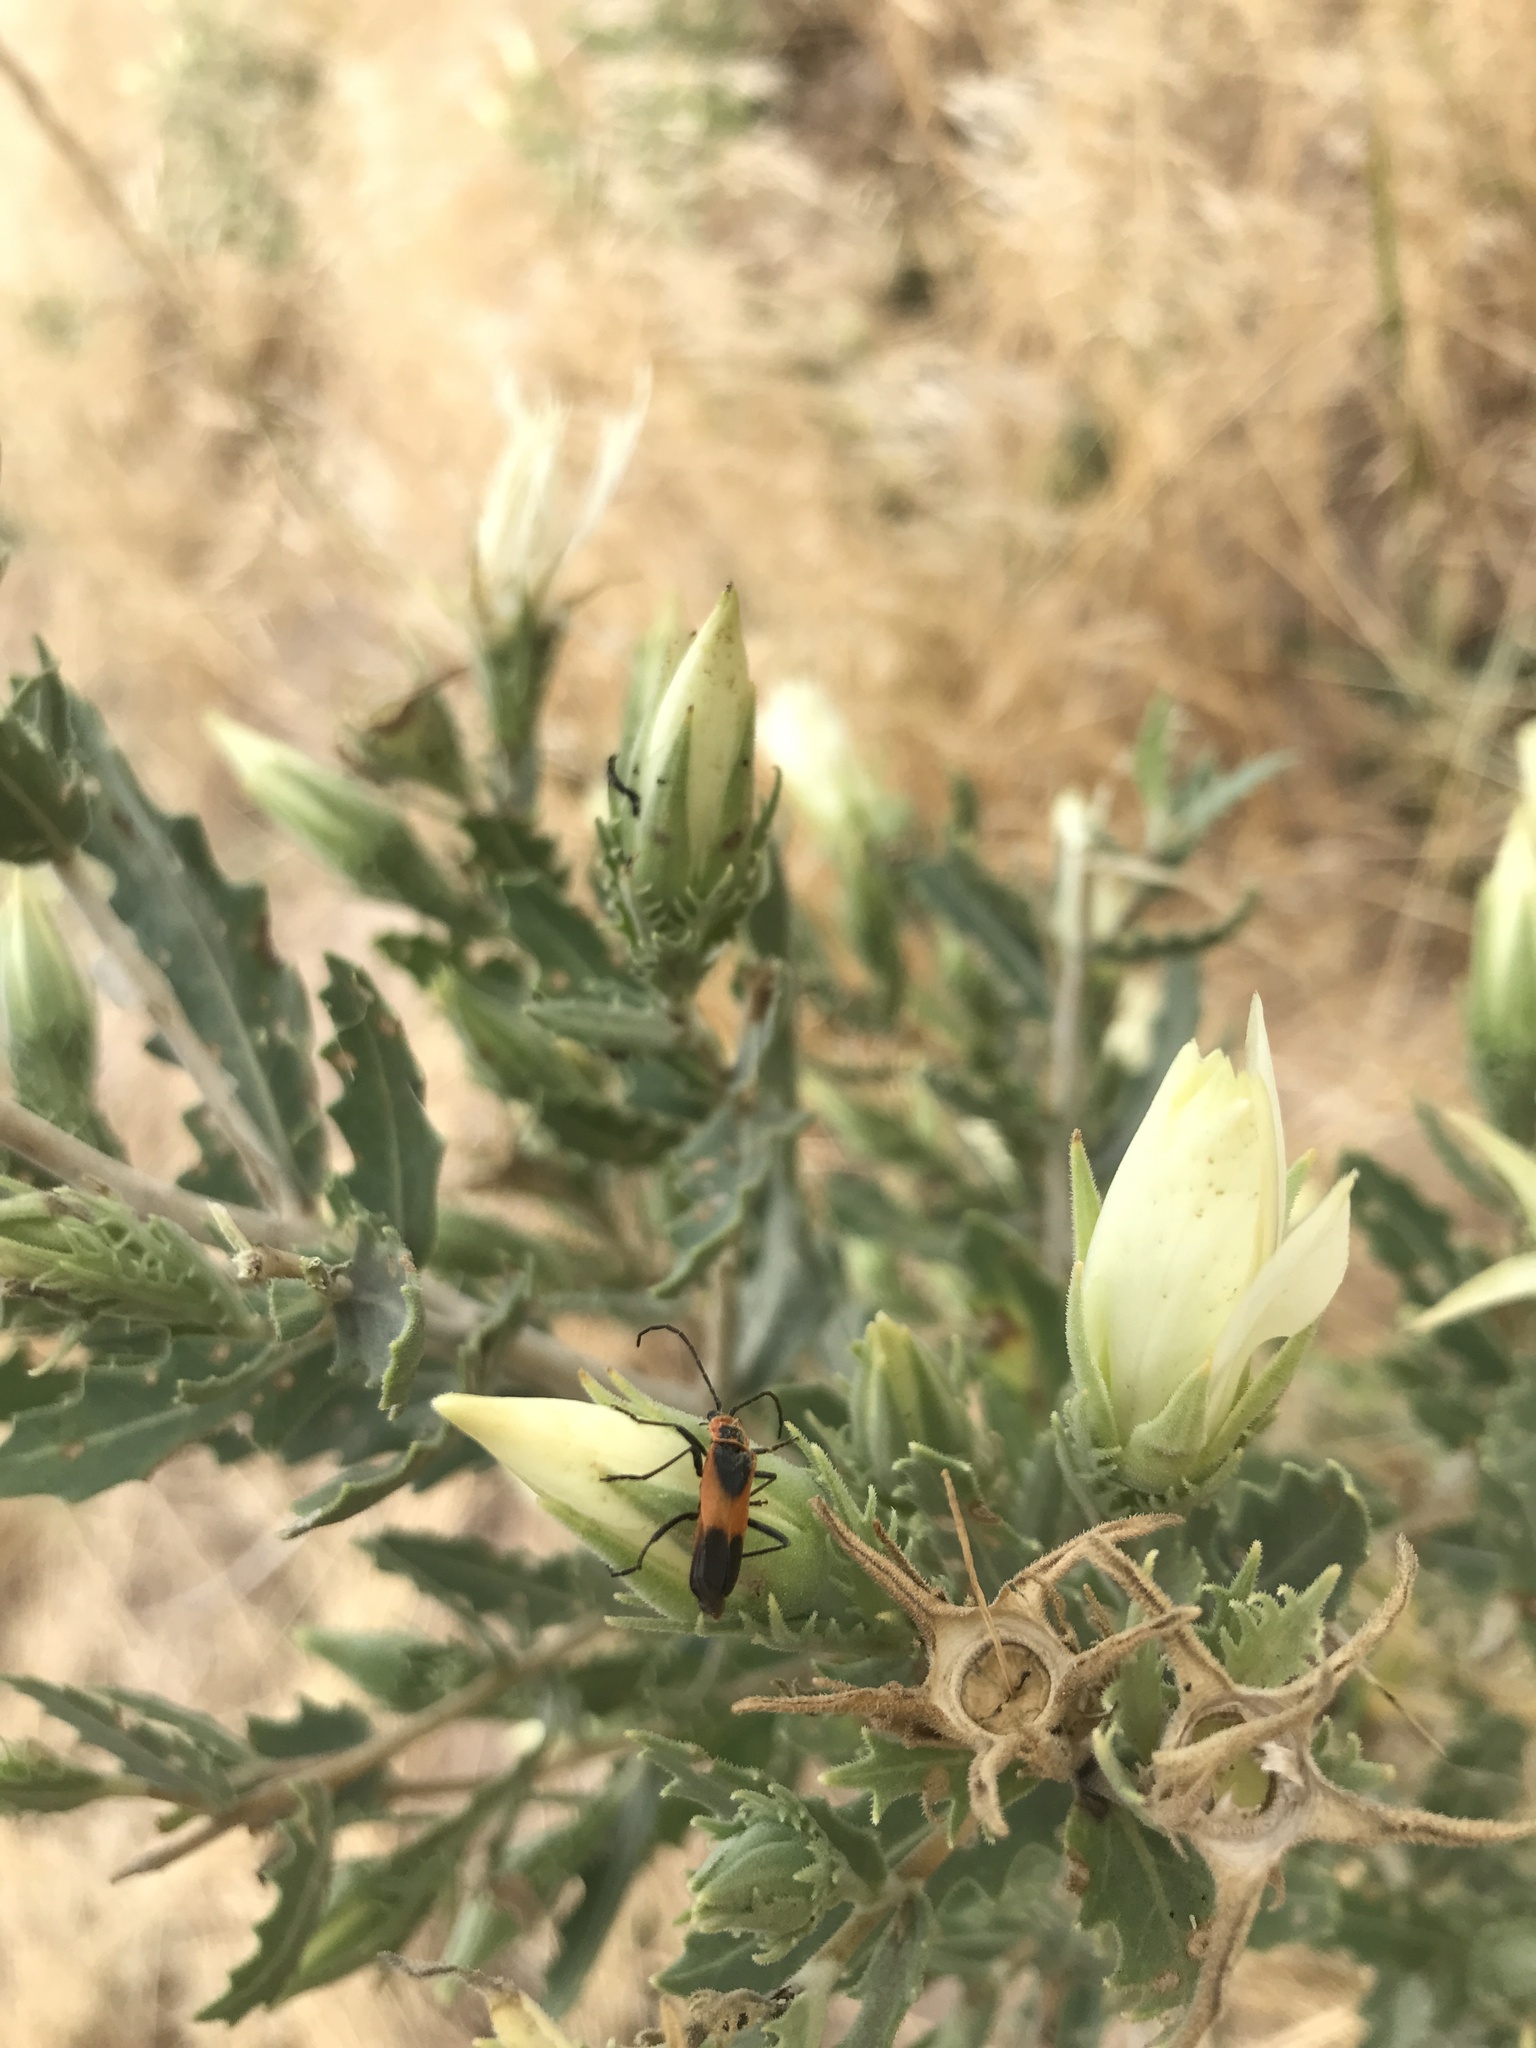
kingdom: Animalia
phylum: Arthropoda
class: Insecta
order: Coleoptera
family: Cantharidae
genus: Chauliognathus
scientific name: Chauliognathus basalis
